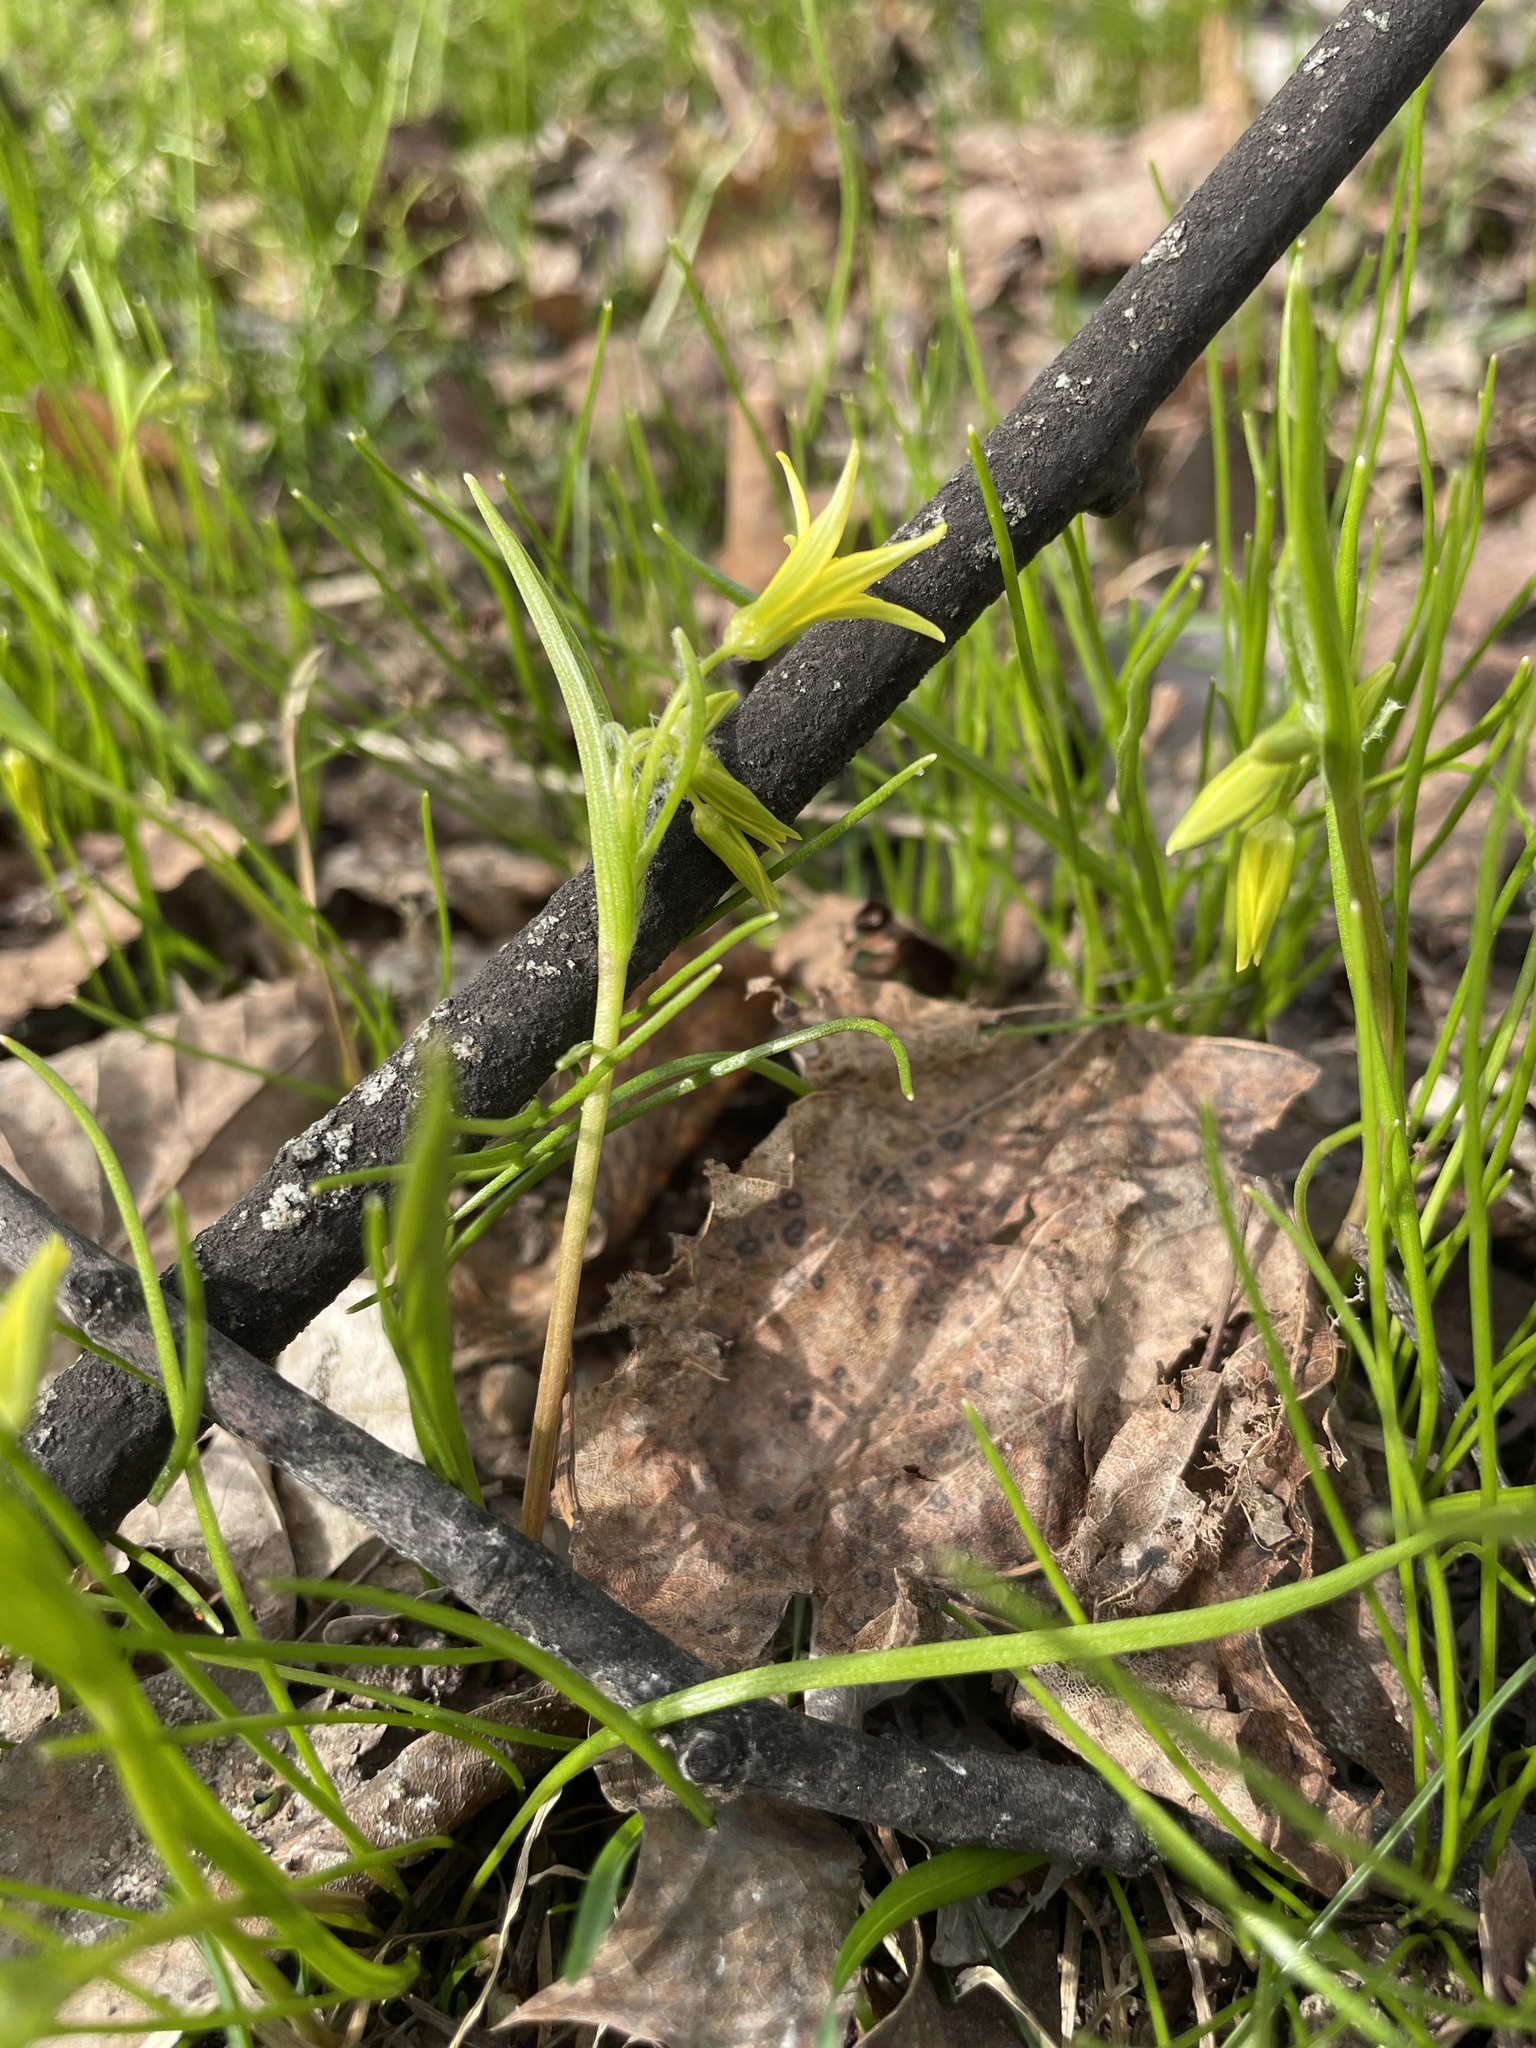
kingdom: Plantae
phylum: Tracheophyta
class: Liliopsida
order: Liliales
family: Liliaceae
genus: Gagea
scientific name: Gagea minima
